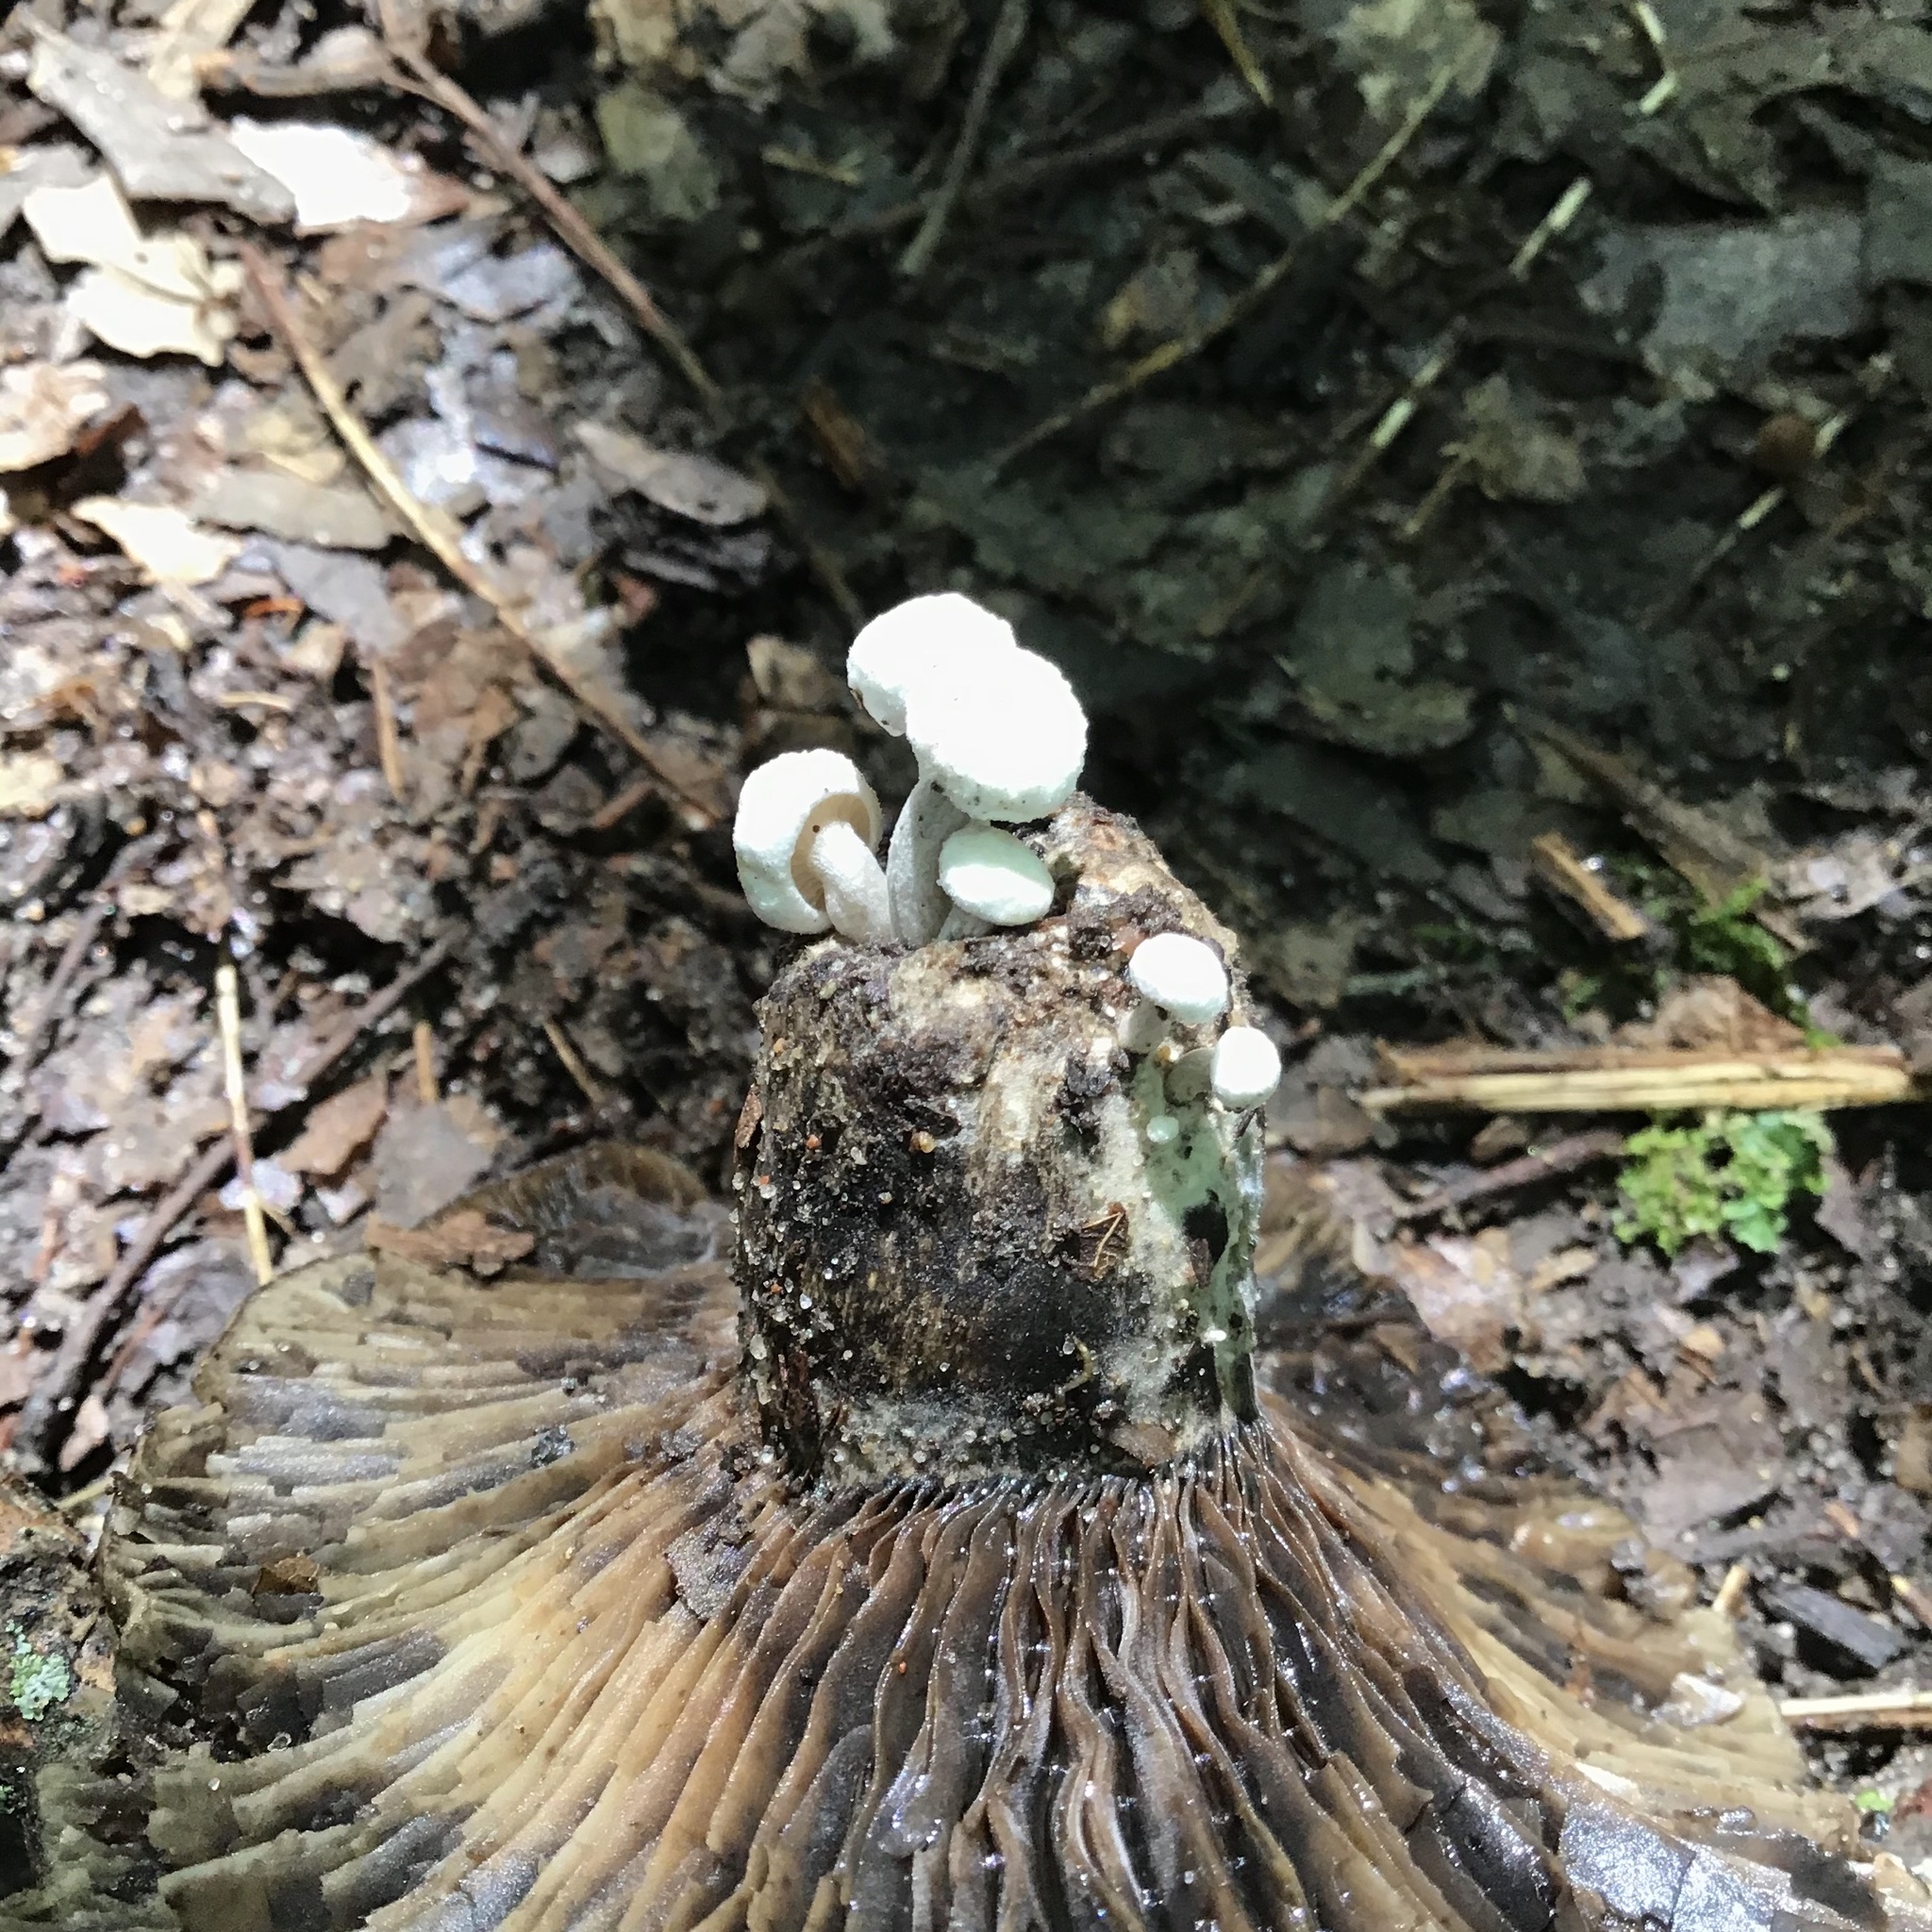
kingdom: Fungi
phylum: Basidiomycota
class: Agaricomycetes
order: Agaricales
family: Lyophyllaceae
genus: Asterophora
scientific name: Asterophora lycoperdoides
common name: Pick-a-back toadstool
